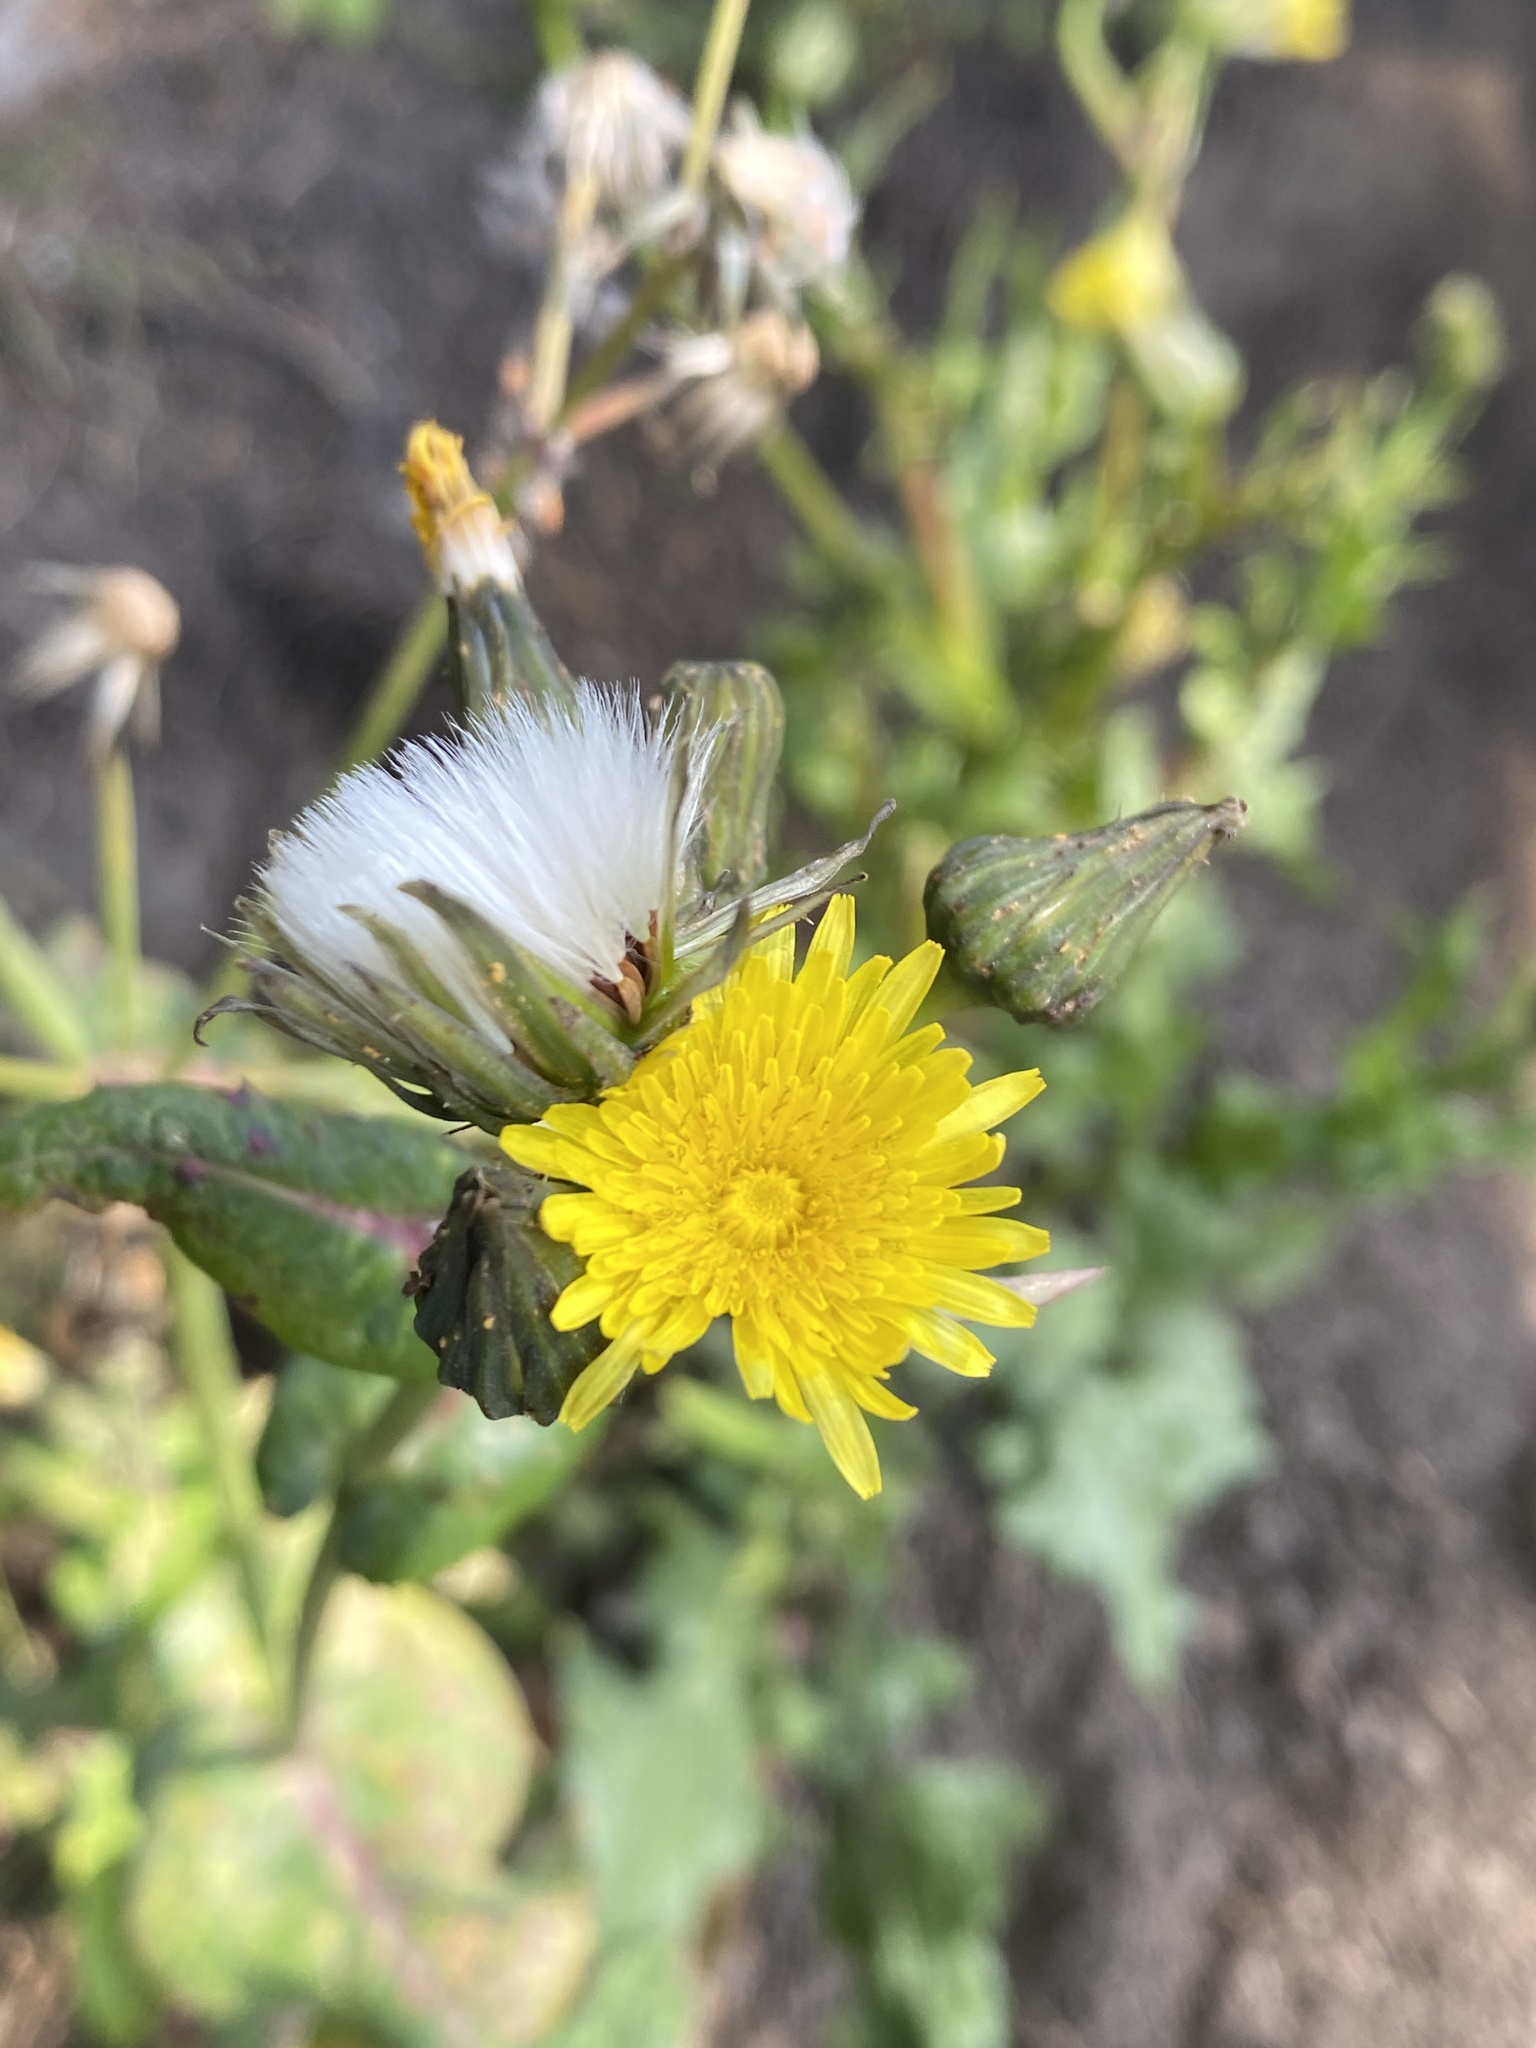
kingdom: Plantae
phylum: Tracheophyta
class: Magnoliopsida
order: Asterales
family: Asteraceae
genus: Sonchus
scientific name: Sonchus oleraceus
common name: Common sowthistle
